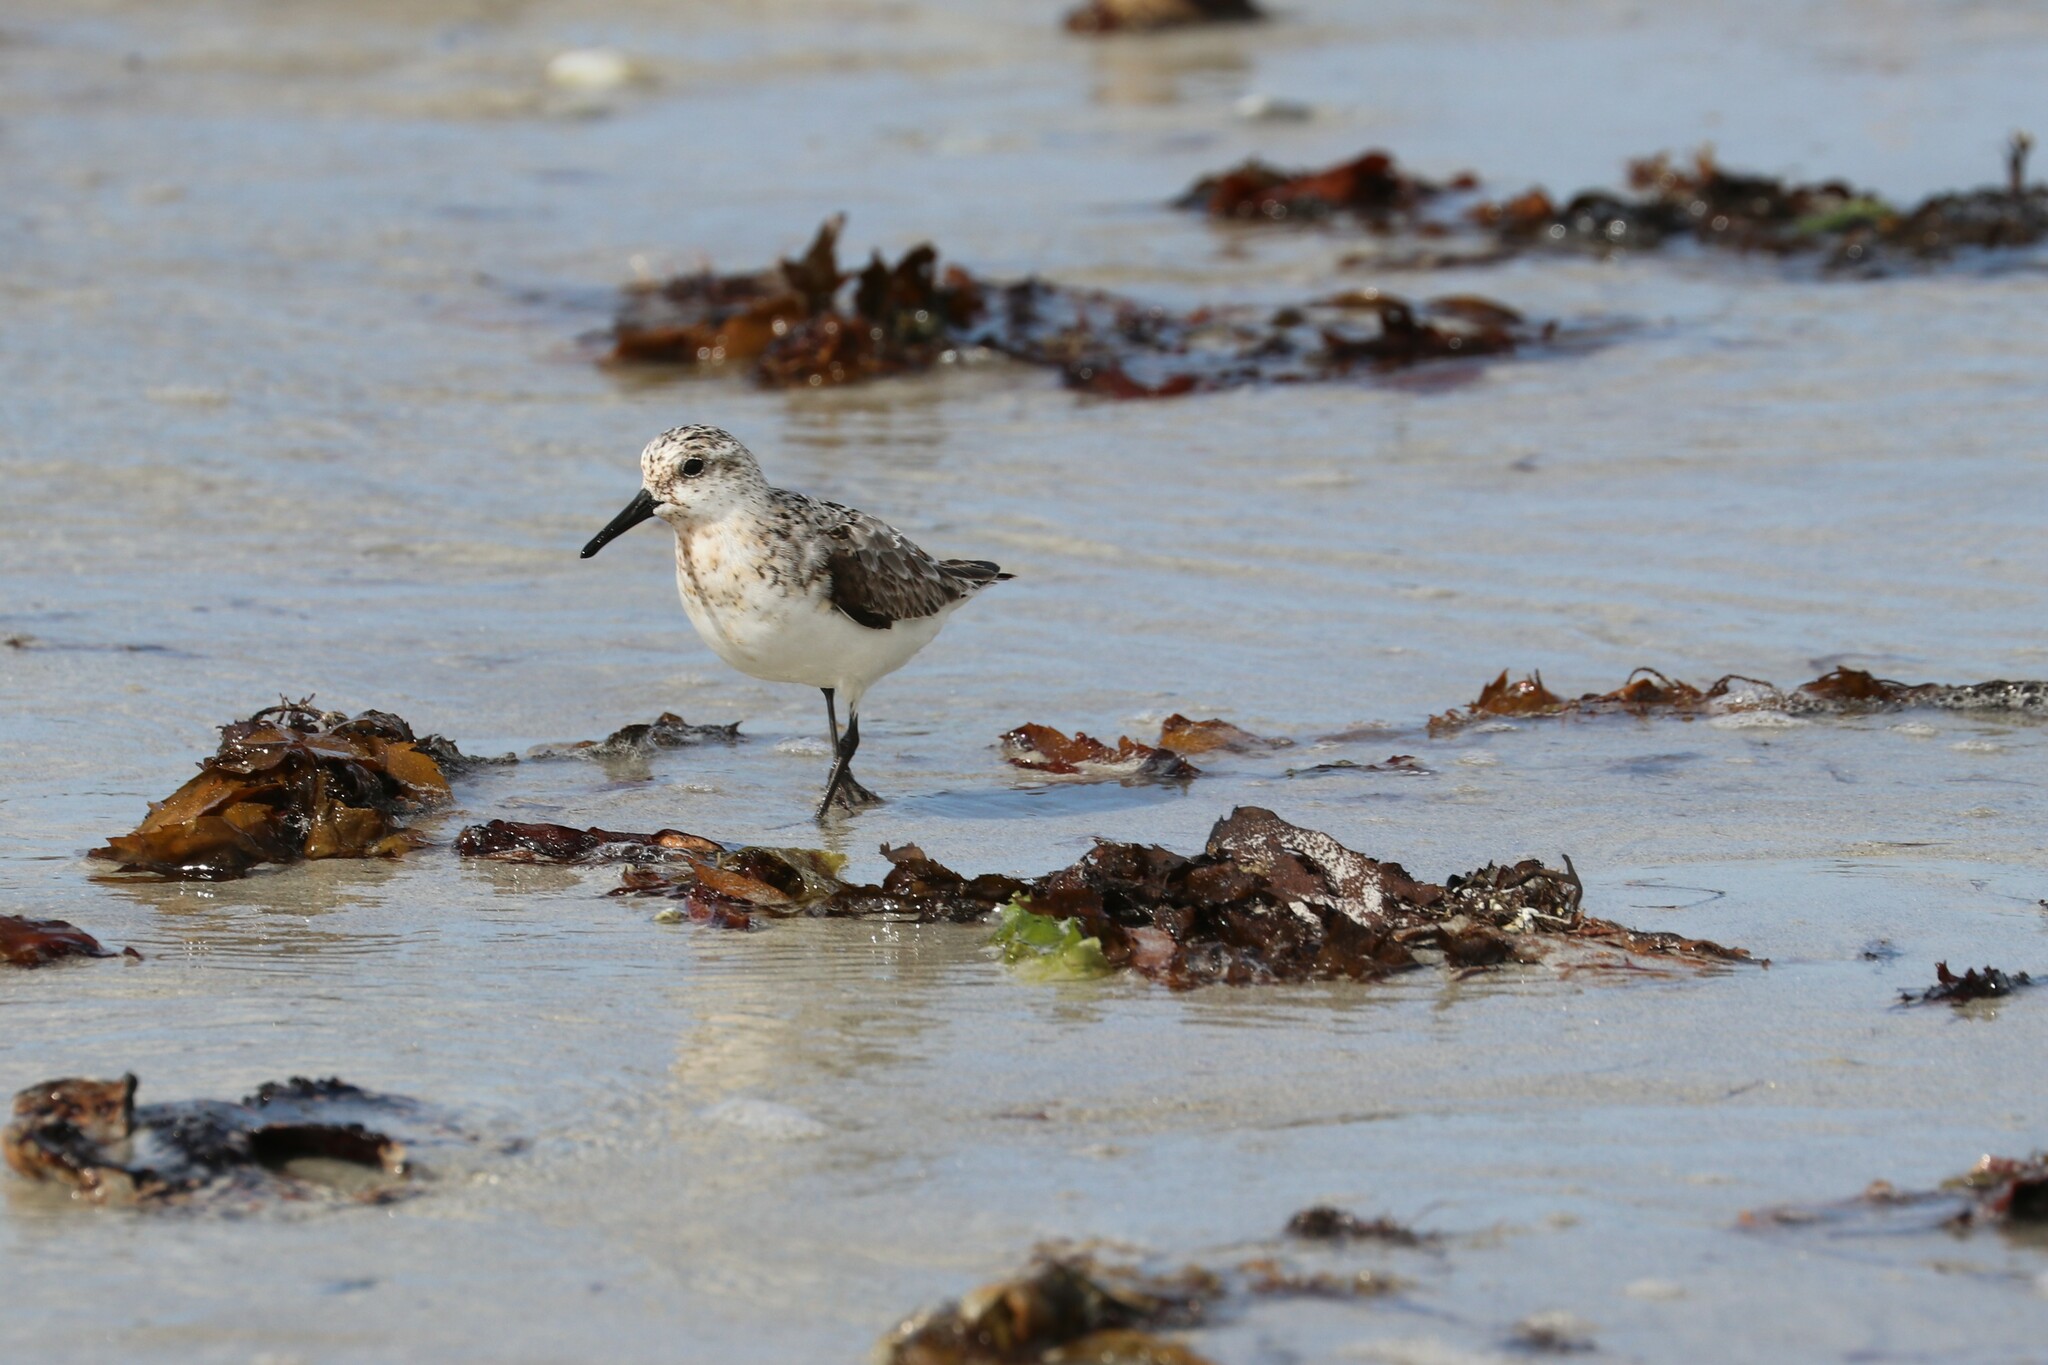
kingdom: Animalia
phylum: Chordata
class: Aves
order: Charadriiformes
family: Scolopacidae
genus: Calidris
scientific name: Calidris alba
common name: Sanderling
